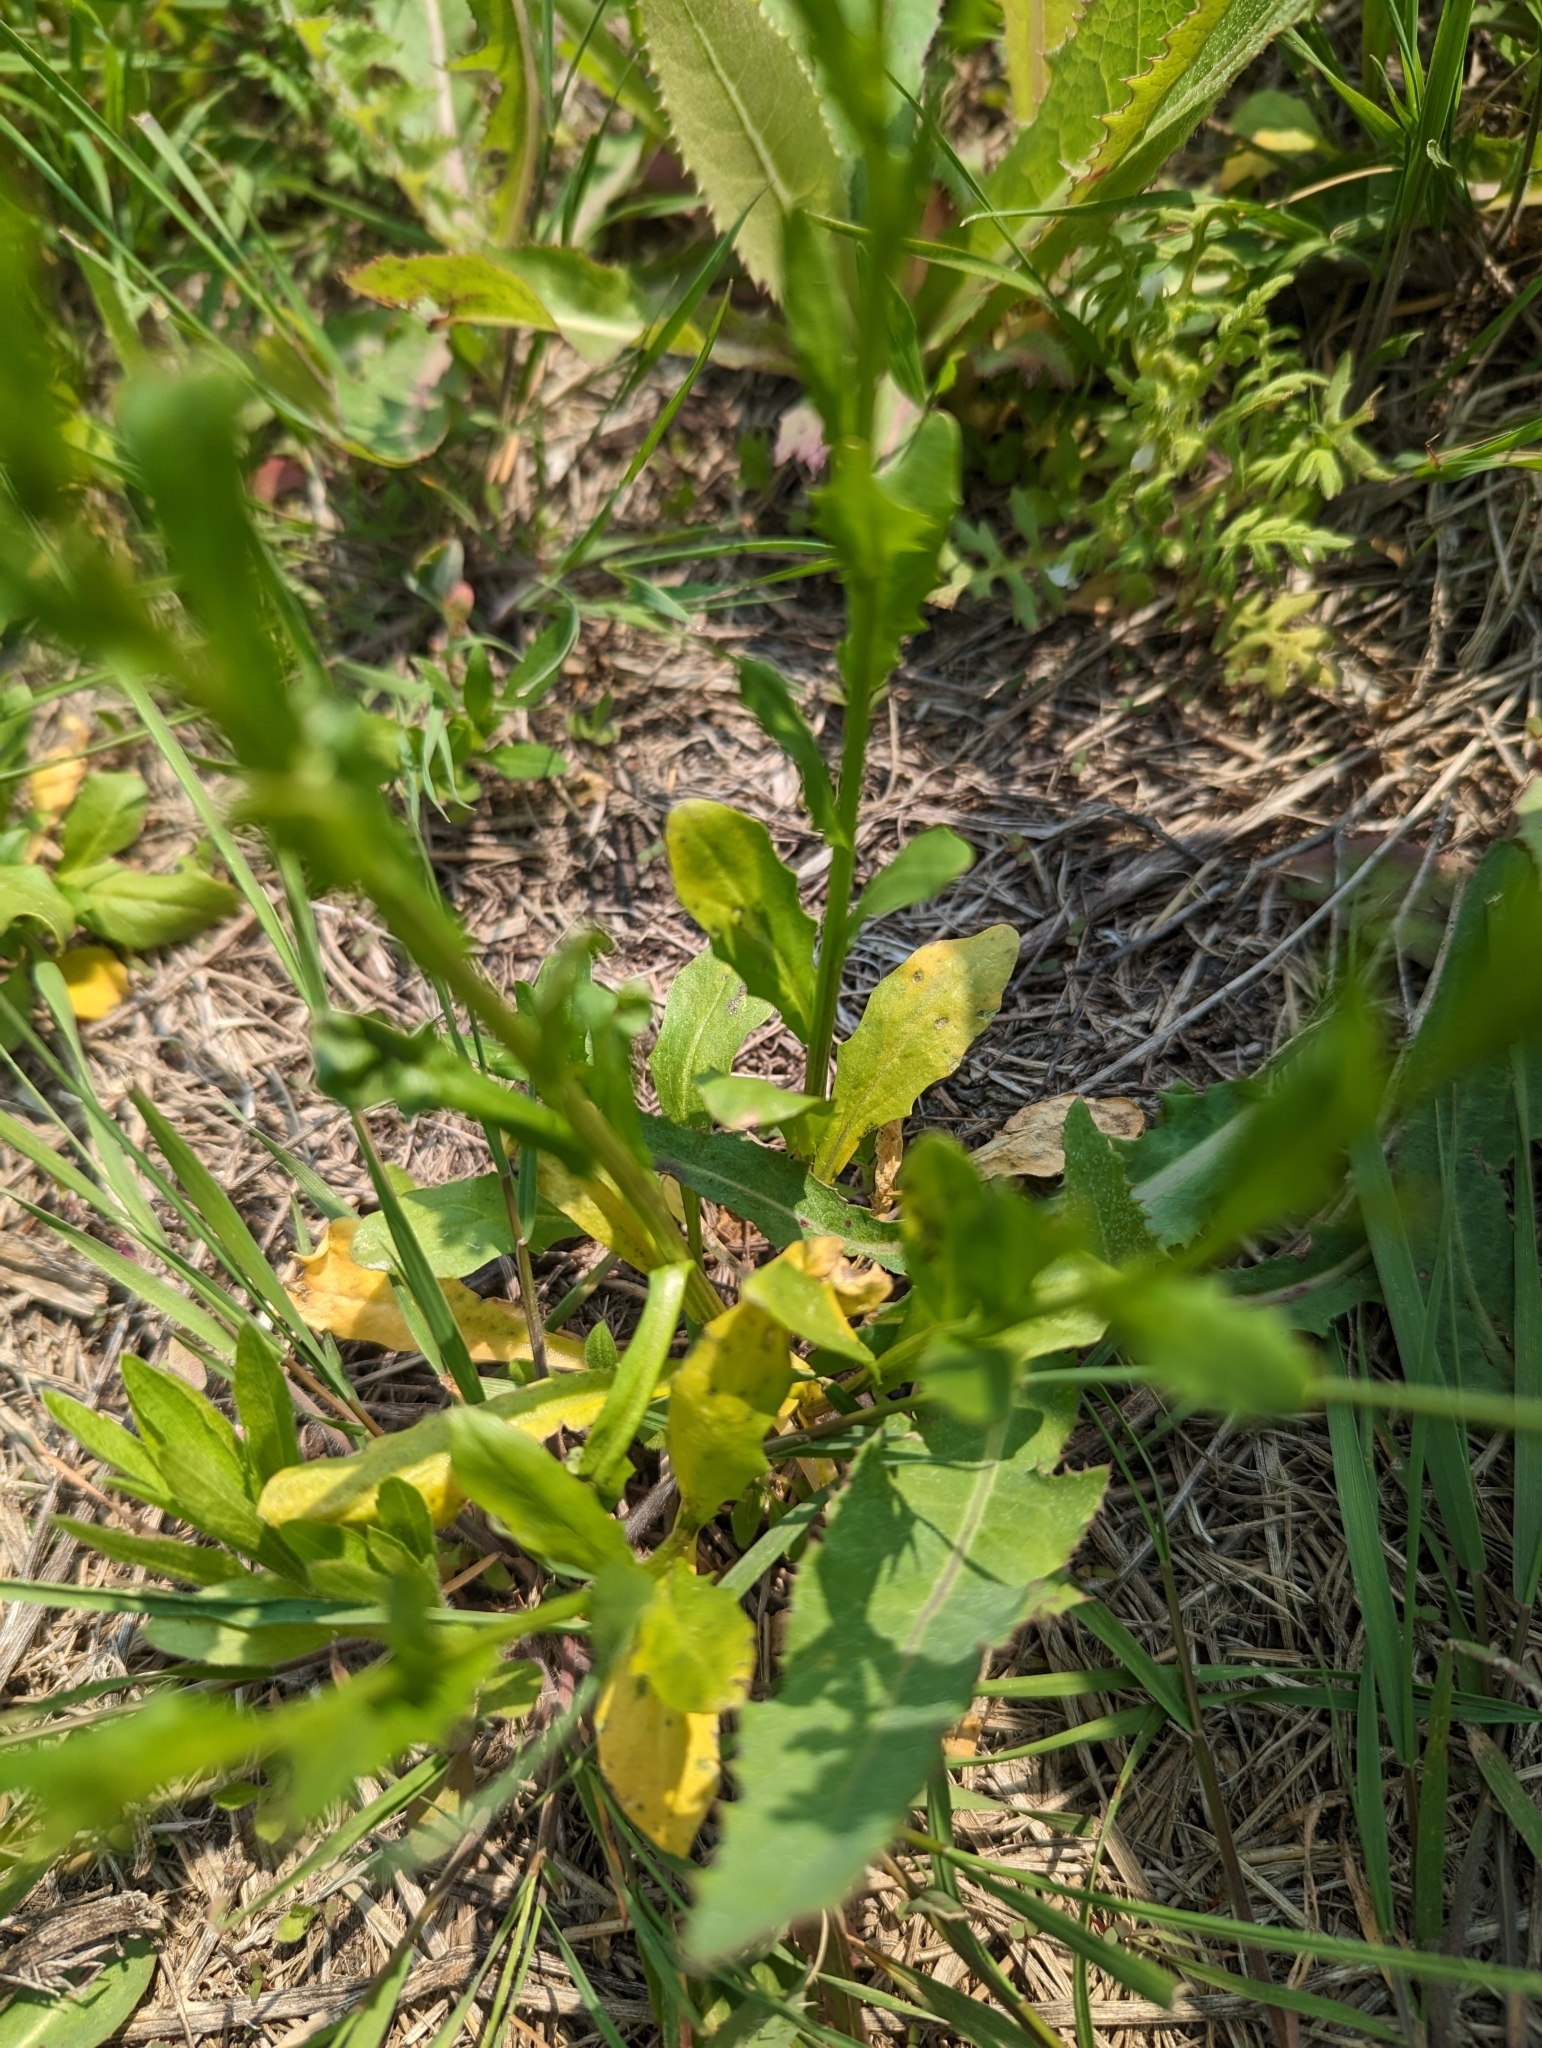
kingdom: Plantae
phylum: Tracheophyta
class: Magnoliopsida
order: Brassicales
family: Brassicaceae
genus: Thlaspi
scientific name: Thlaspi arvense
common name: Field pennycress
